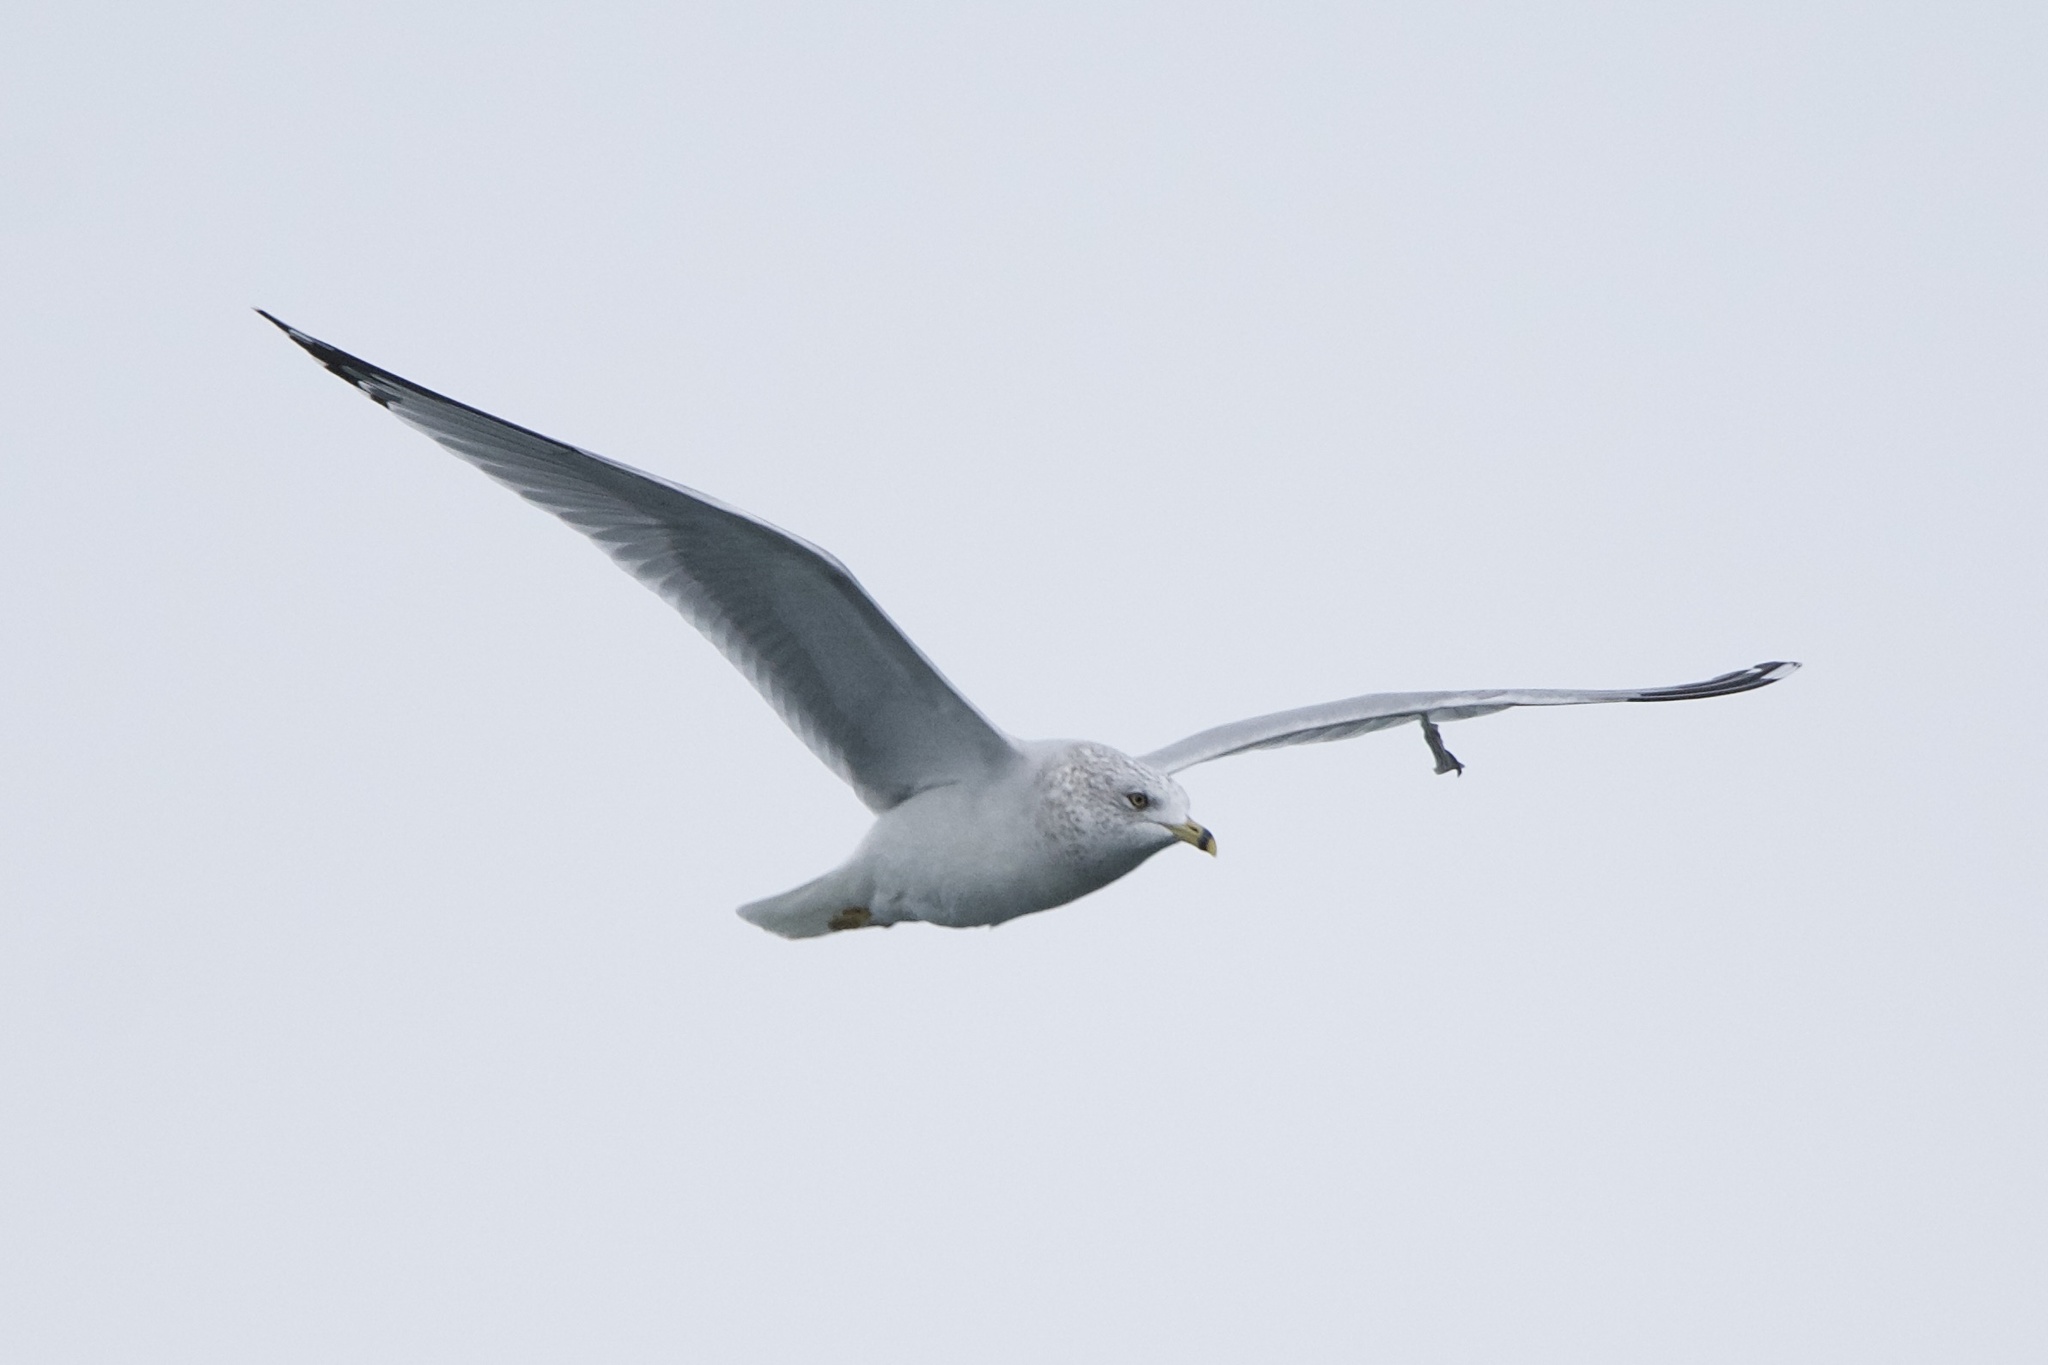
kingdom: Animalia
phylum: Chordata
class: Aves
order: Charadriiformes
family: Laridae
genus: Larus
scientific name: Larus delawarensis
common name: Ring-billed gull
